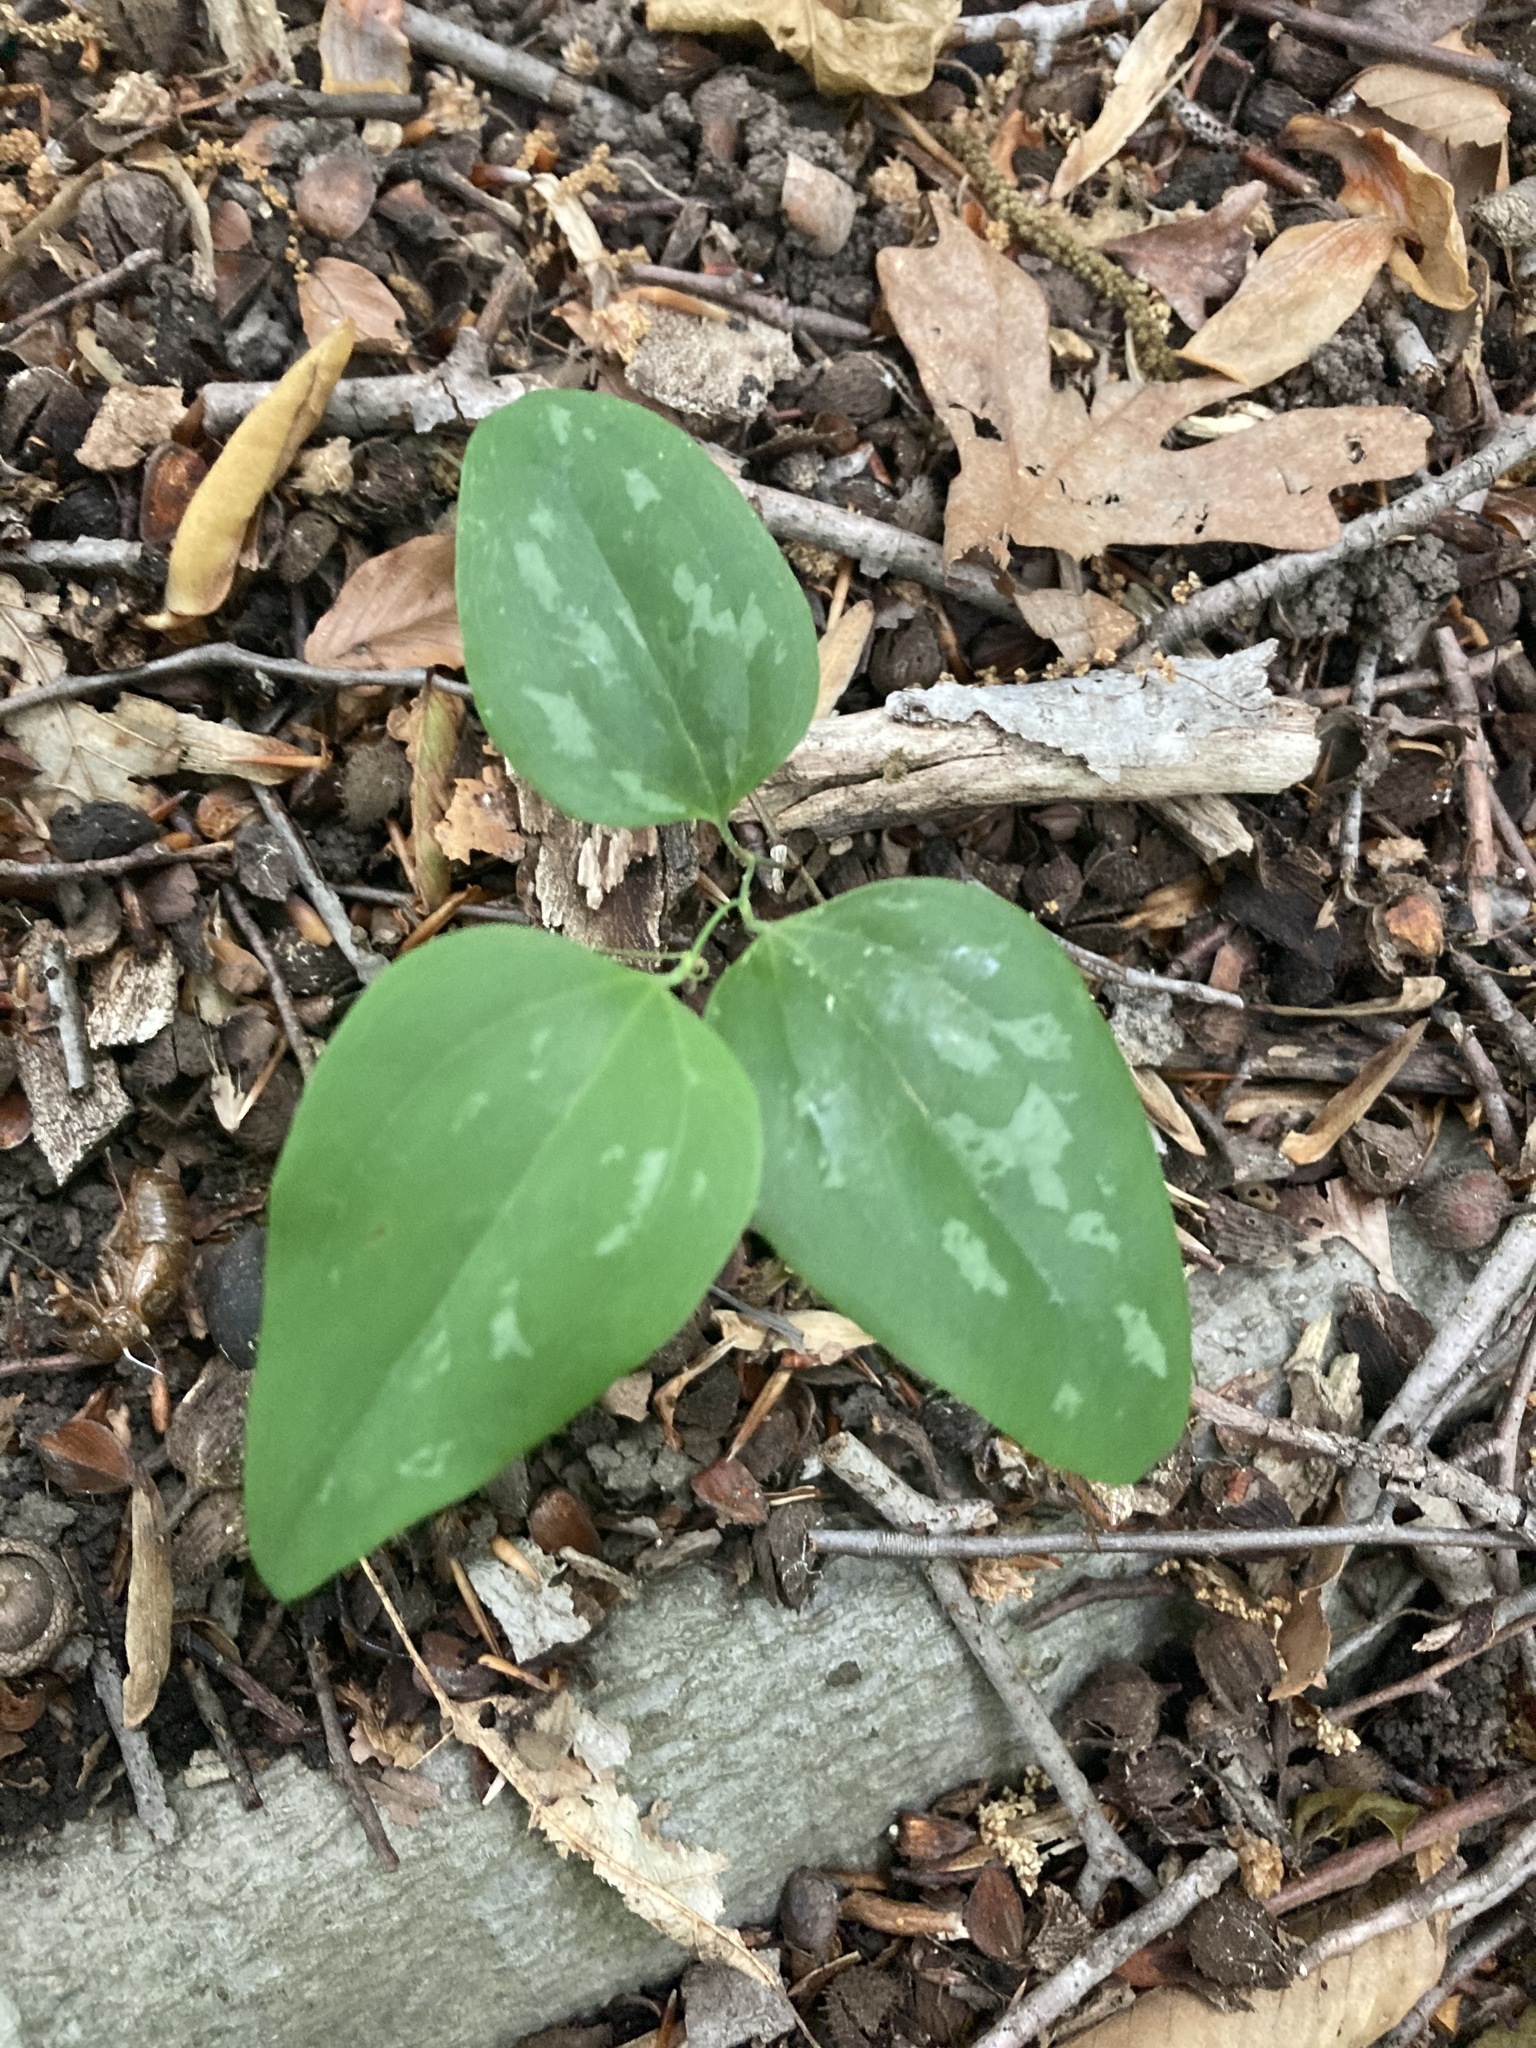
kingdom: Plantae
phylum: Tracheophyta
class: Liliopsida
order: Liliales
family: Smilacaceae
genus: Smilax
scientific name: Smilax glauca
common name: Cat greenbrier
